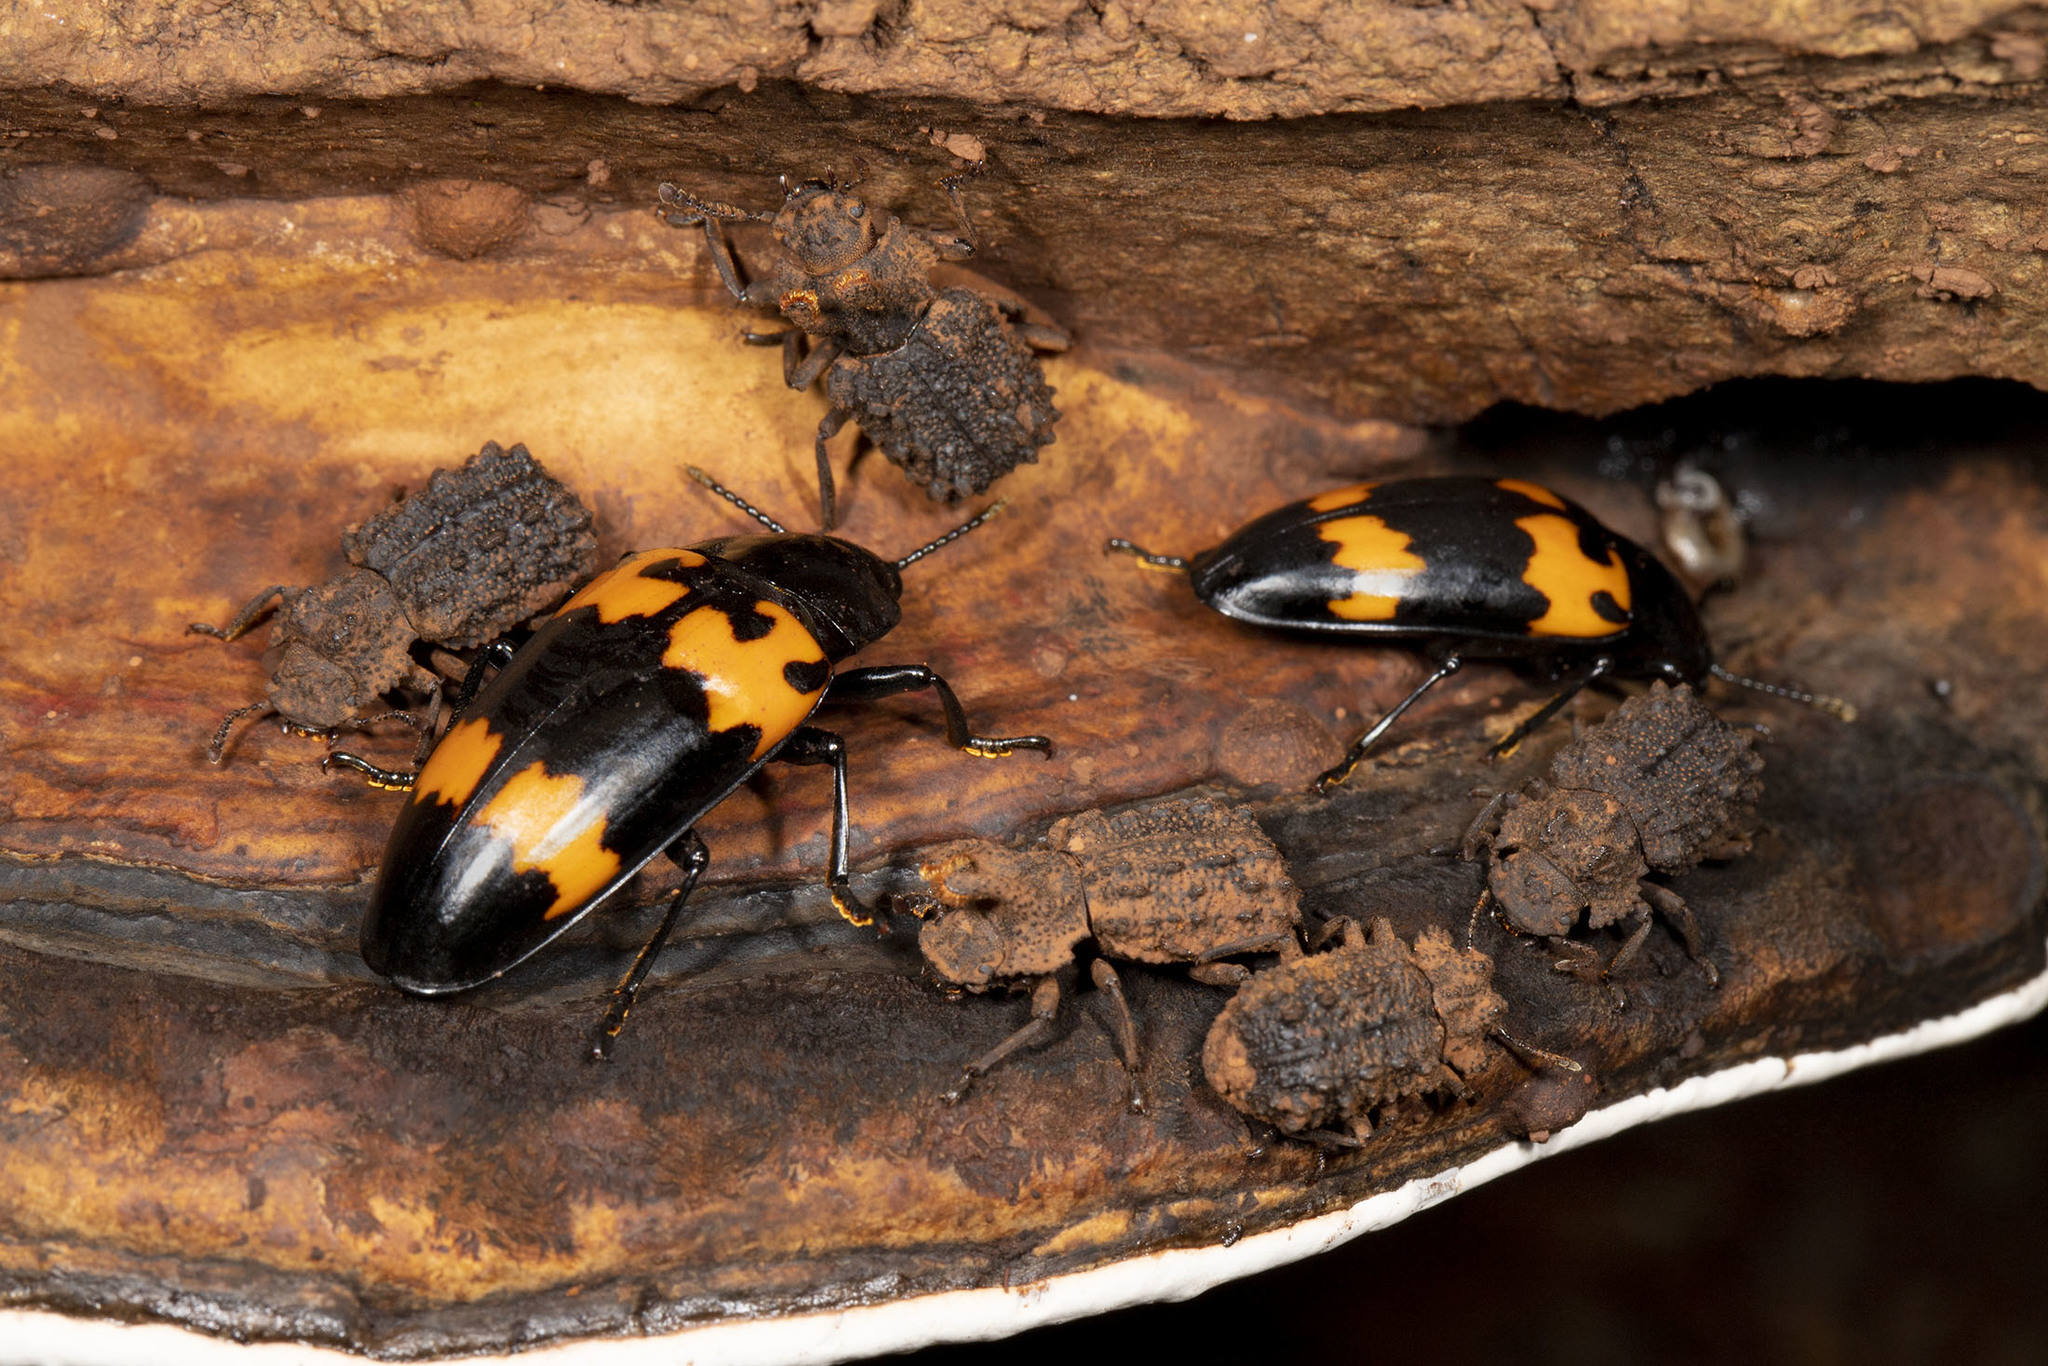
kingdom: Animalia
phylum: Arthropoda
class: Insecta
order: Coleoptera
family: Erotylidae
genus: Megalodacne
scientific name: Megalodacne heros
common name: Pleasing fungus beetle
